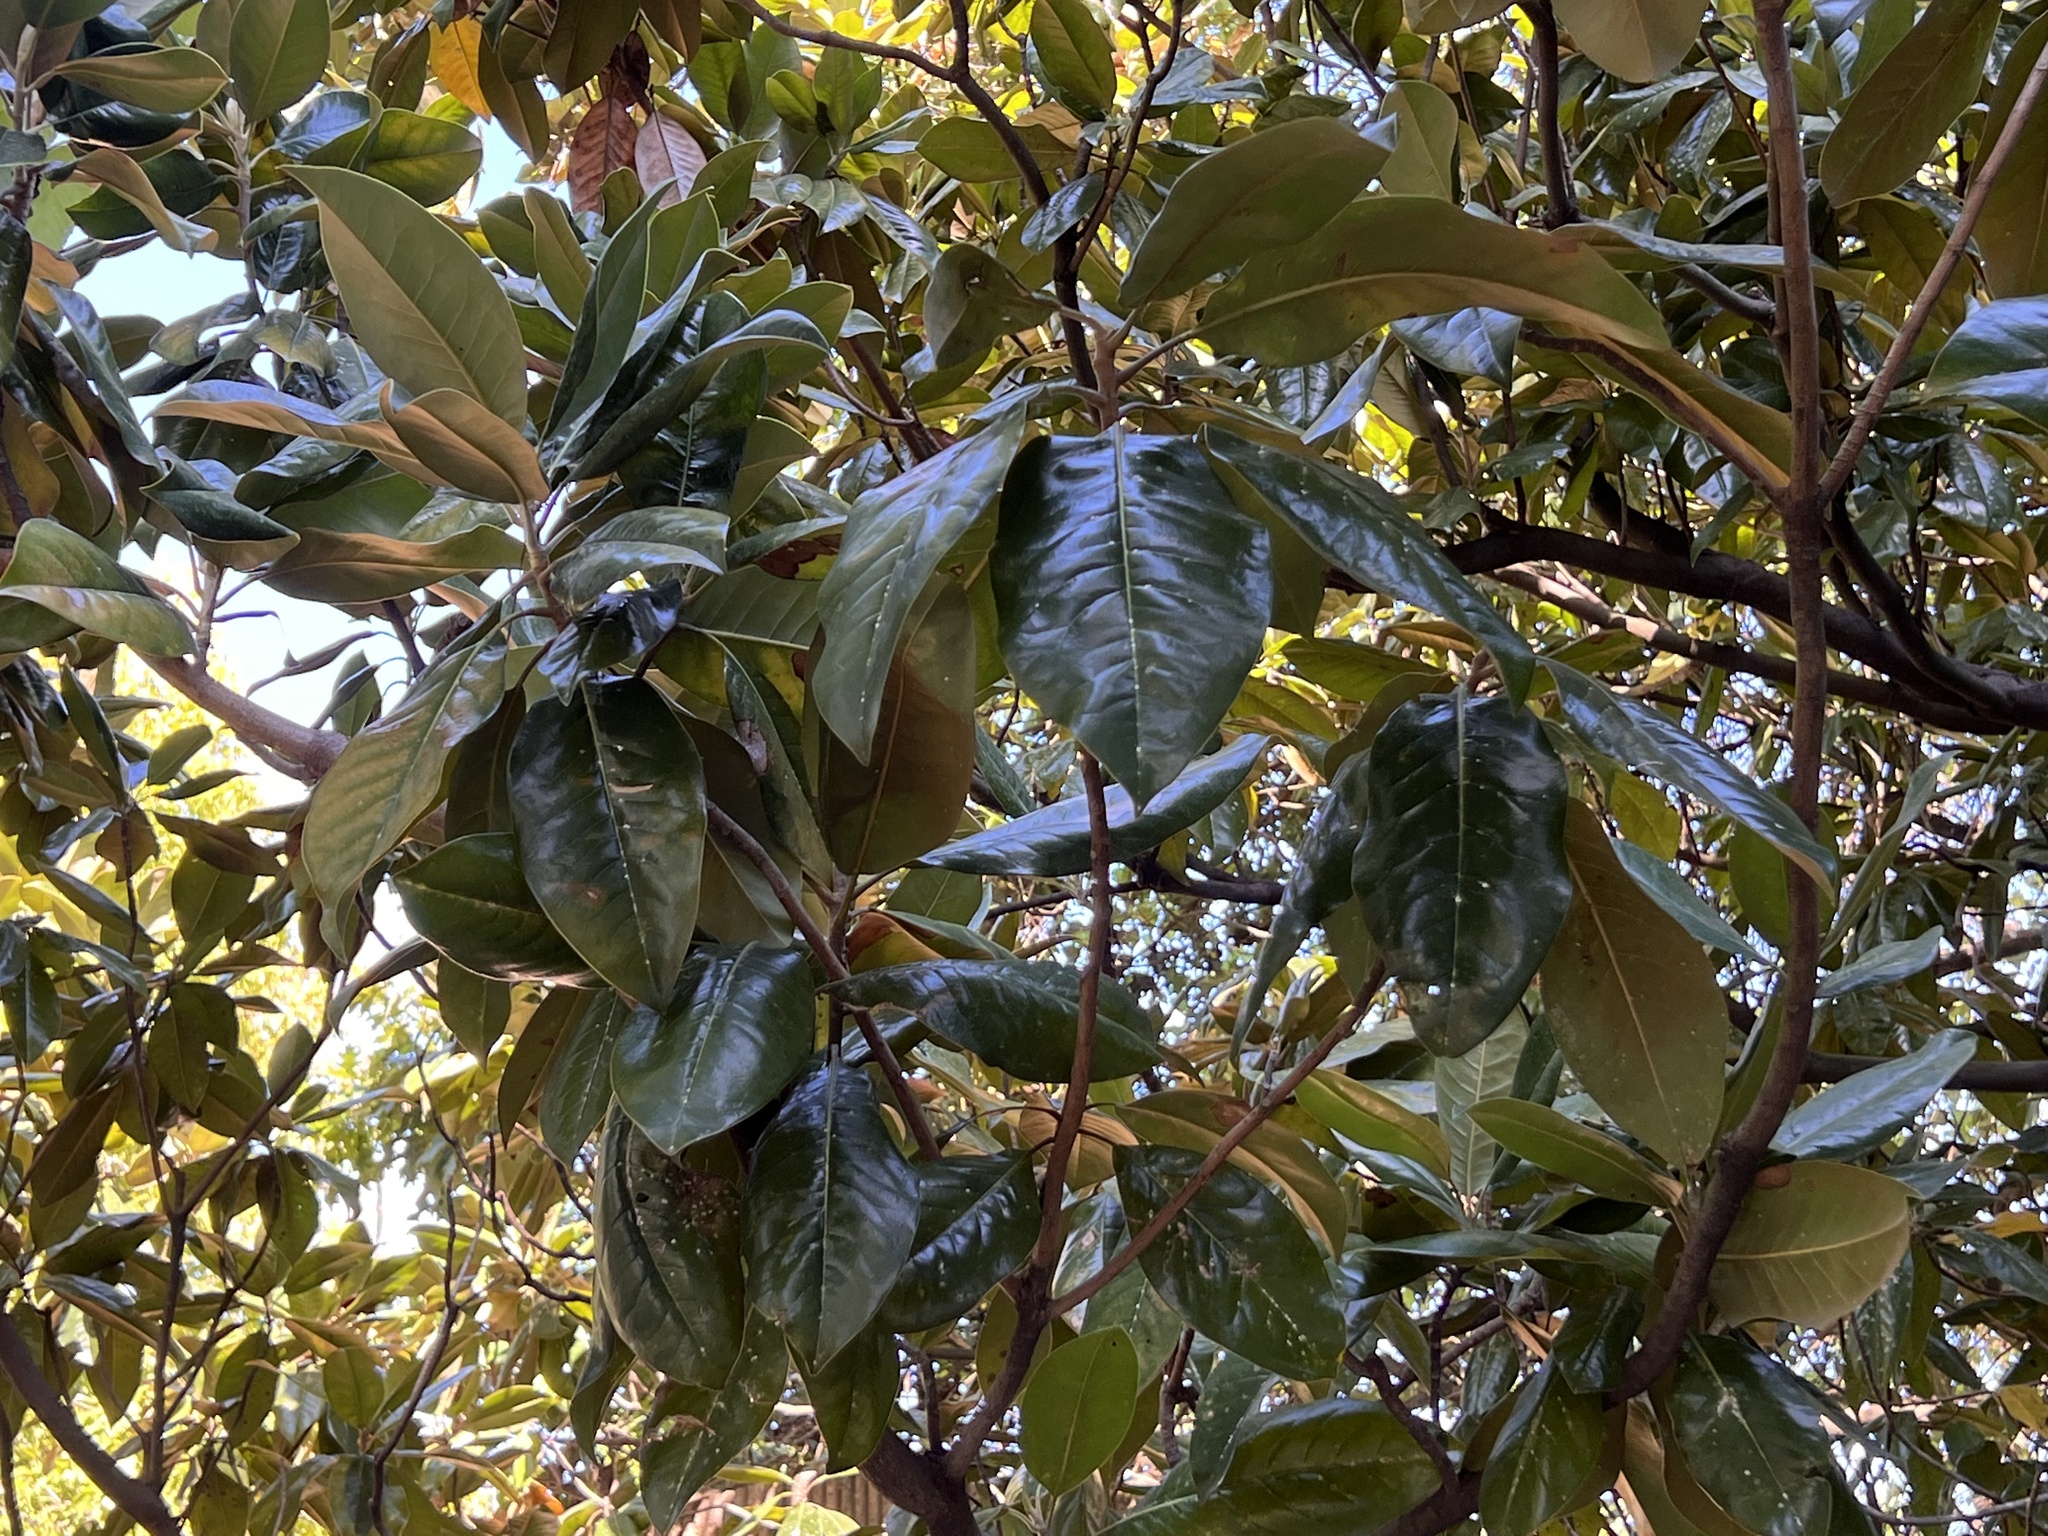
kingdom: Plantae
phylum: Tracheophyta
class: Magnoliopsida
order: Magnoliales
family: Magnoliaceae
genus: Magnolia
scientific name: Magnolia grandiflora
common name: Southern magnolia
